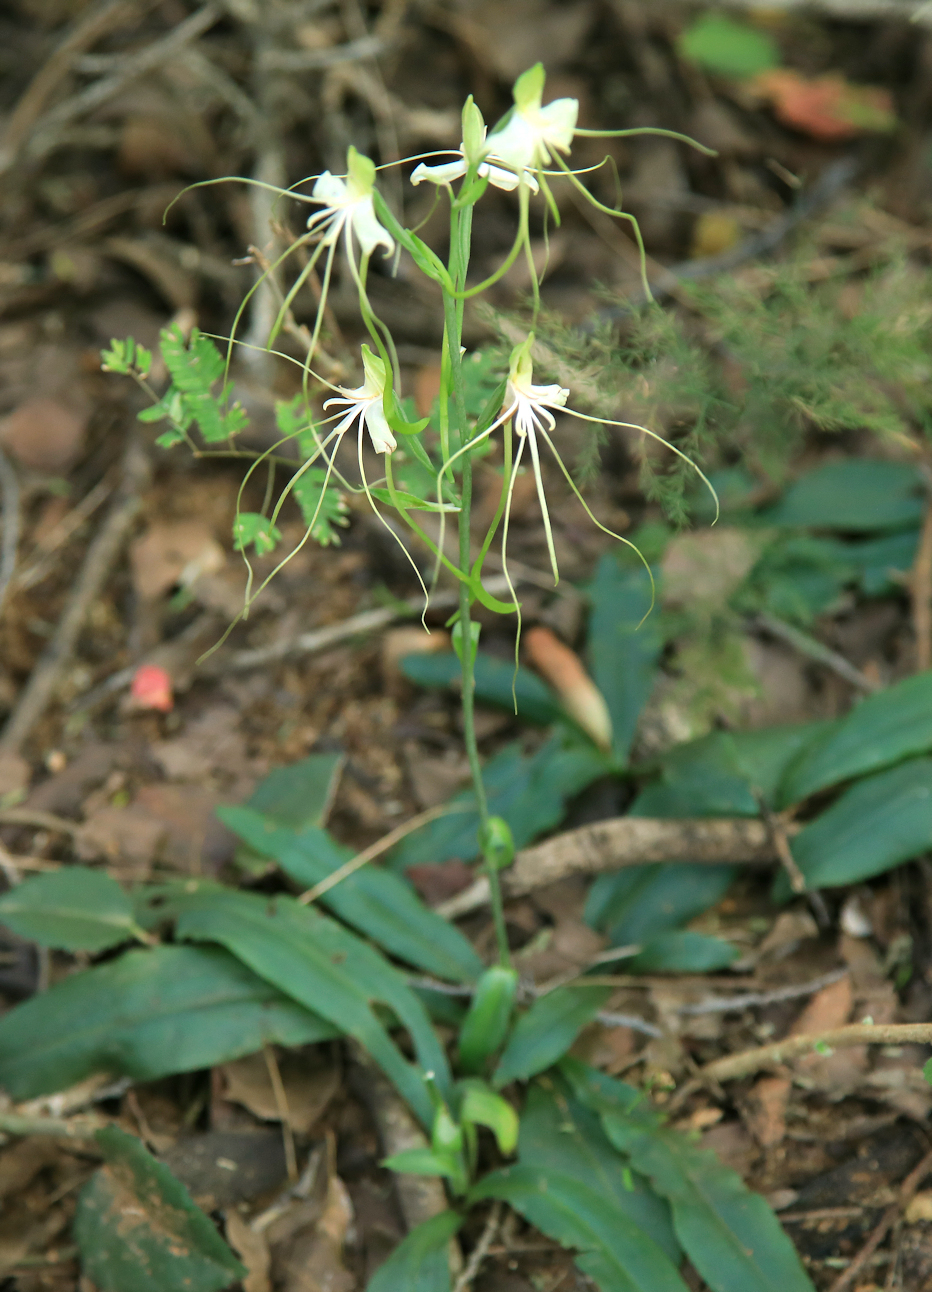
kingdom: Plantae
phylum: Tracheophyta
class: Liliopsida
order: Asparagales
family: Orchidaceae
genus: Bonatea
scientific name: Bonatea pulchella
